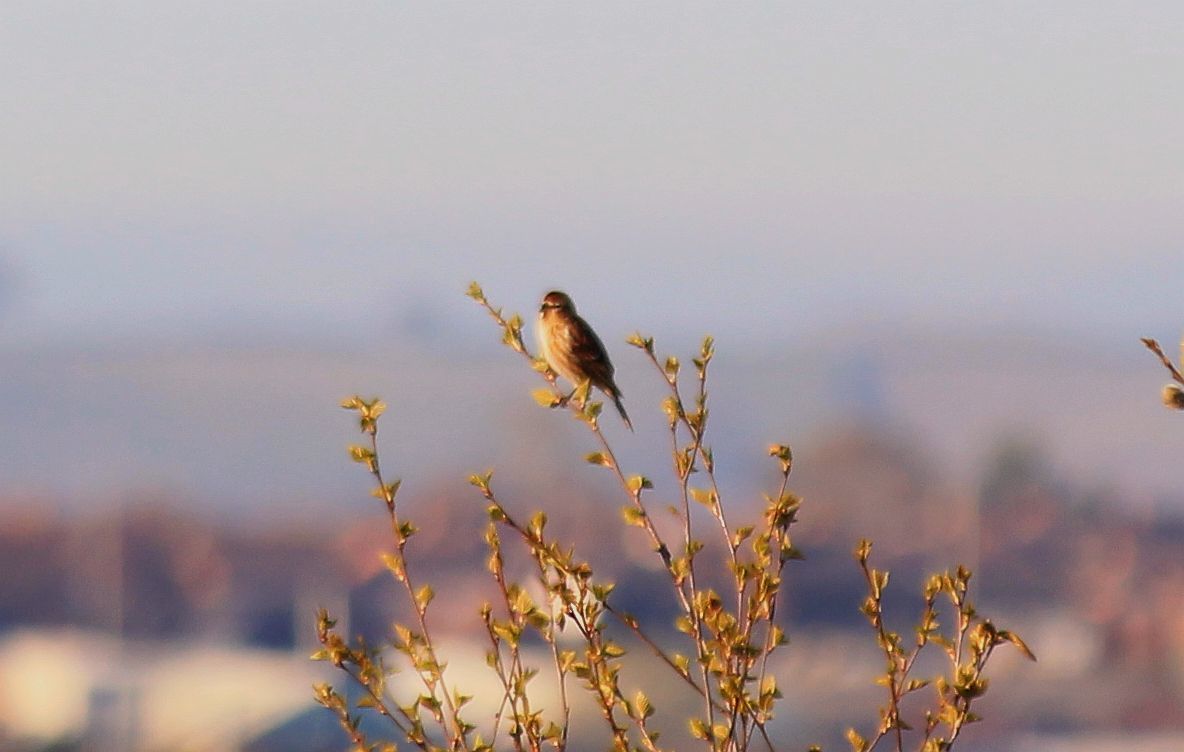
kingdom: Animalia
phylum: Chordata
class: Aves
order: Passeriformes
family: Fringillidae
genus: Acanthis
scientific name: Acanthis flammea
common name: Common redpoll
